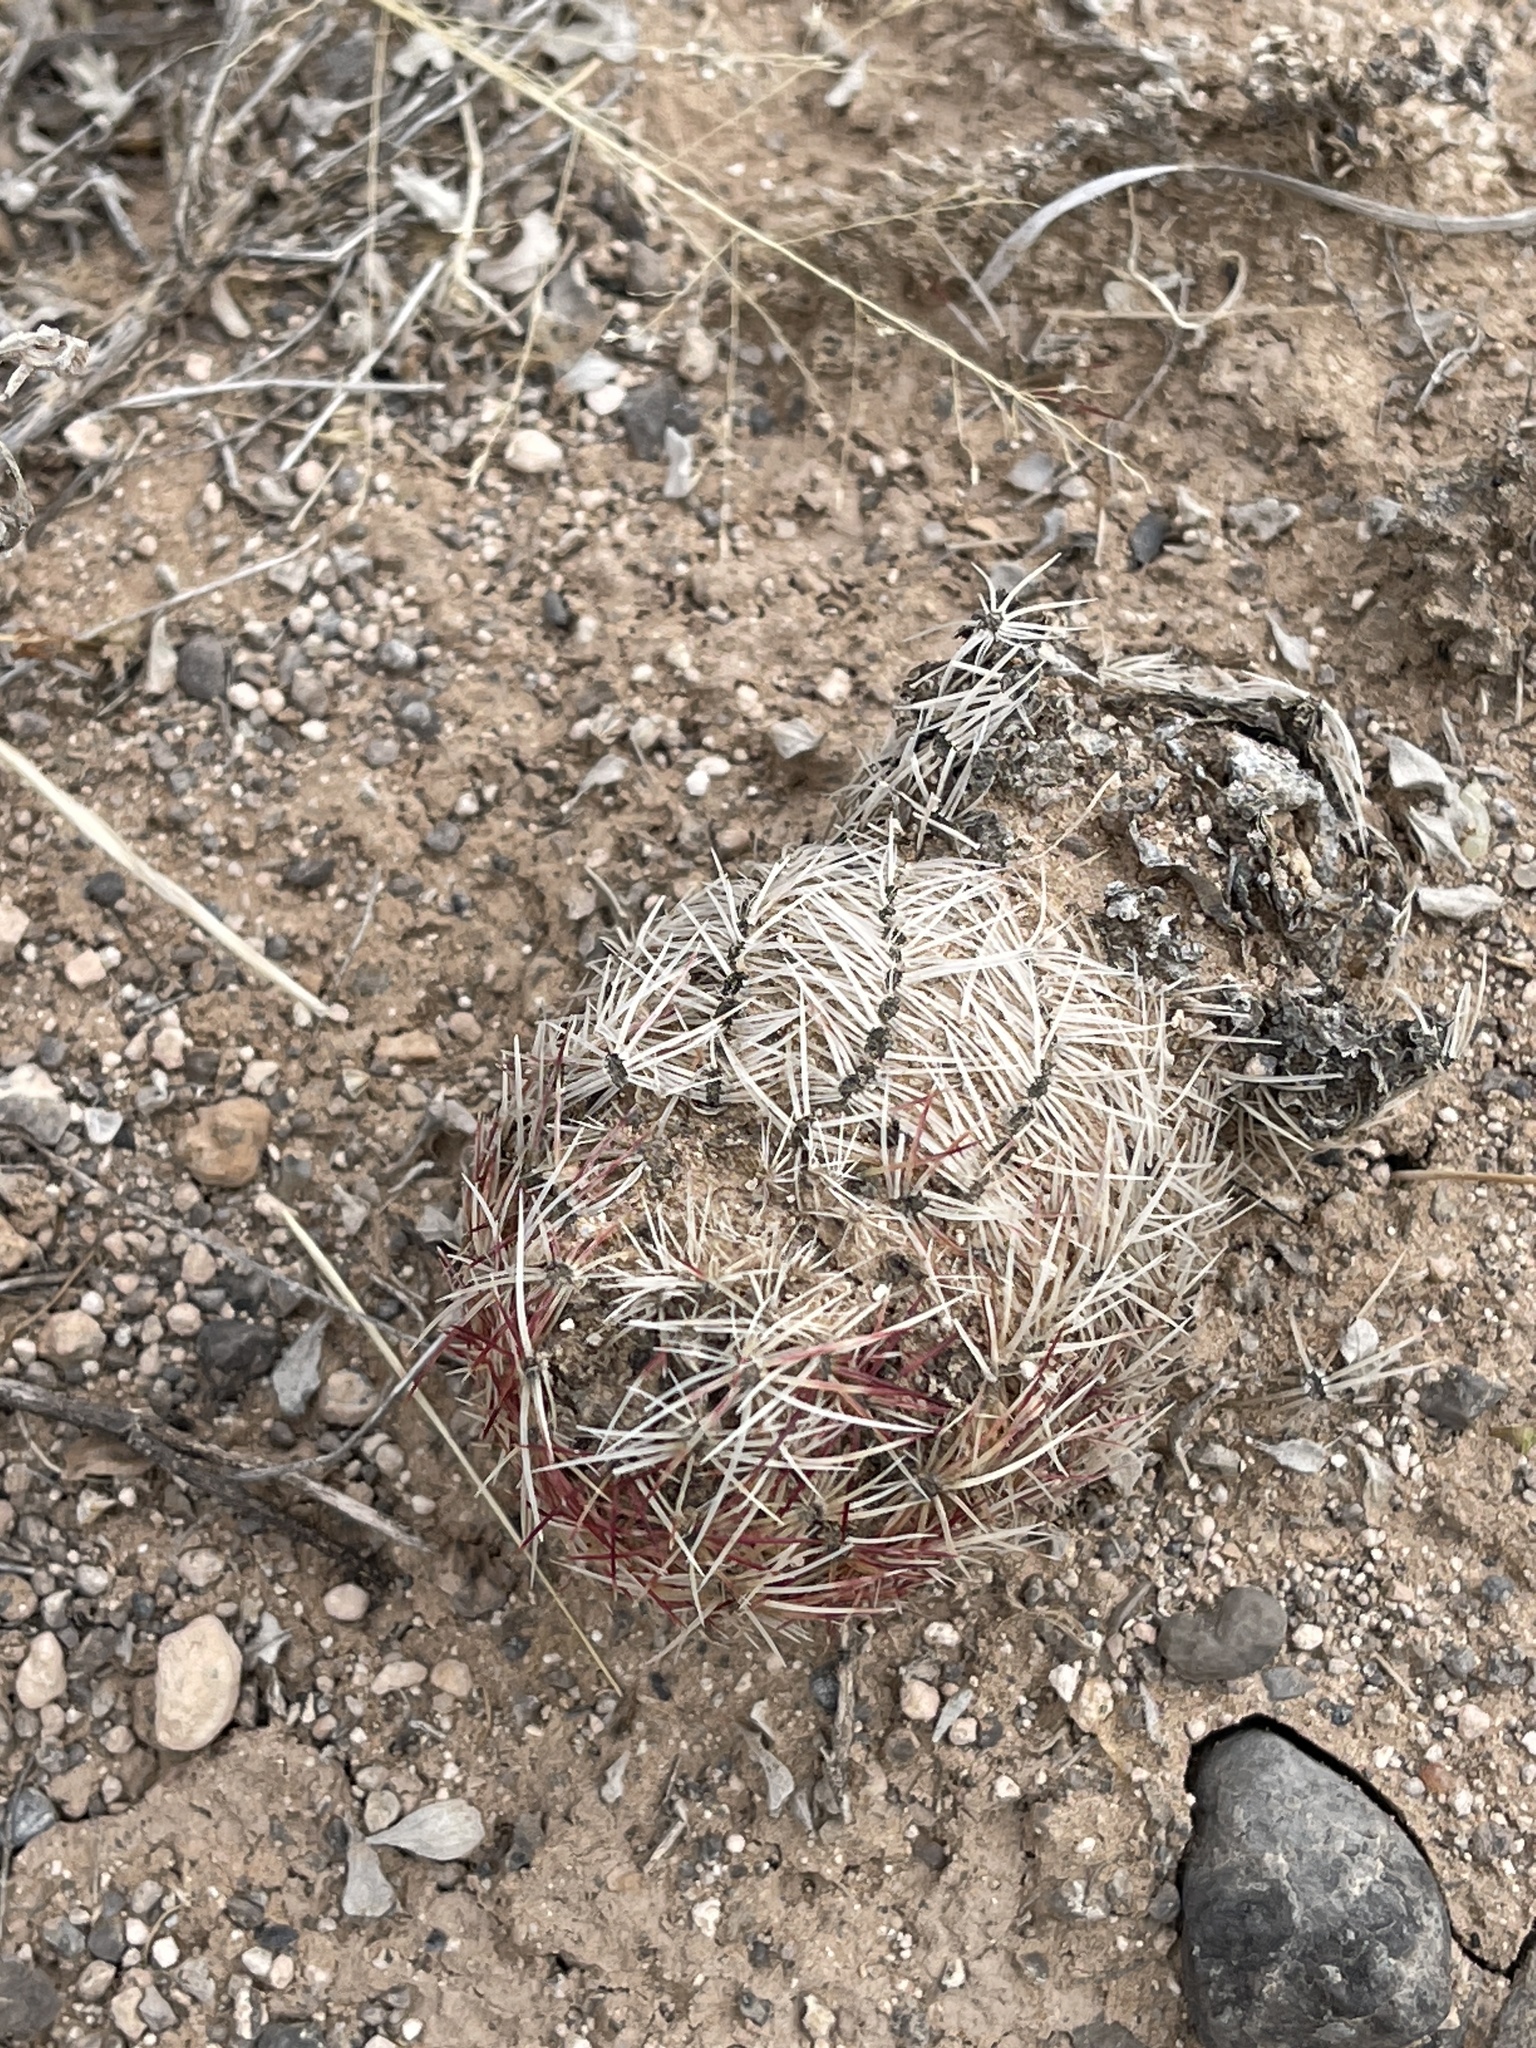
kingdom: Plantae
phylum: Tracheophyta
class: Magnoliopsida
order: Caryophyllales
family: Cactaceae
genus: Echinocereus
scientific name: Echinocereus viridiflorus
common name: Nylon hedgehog cactus
